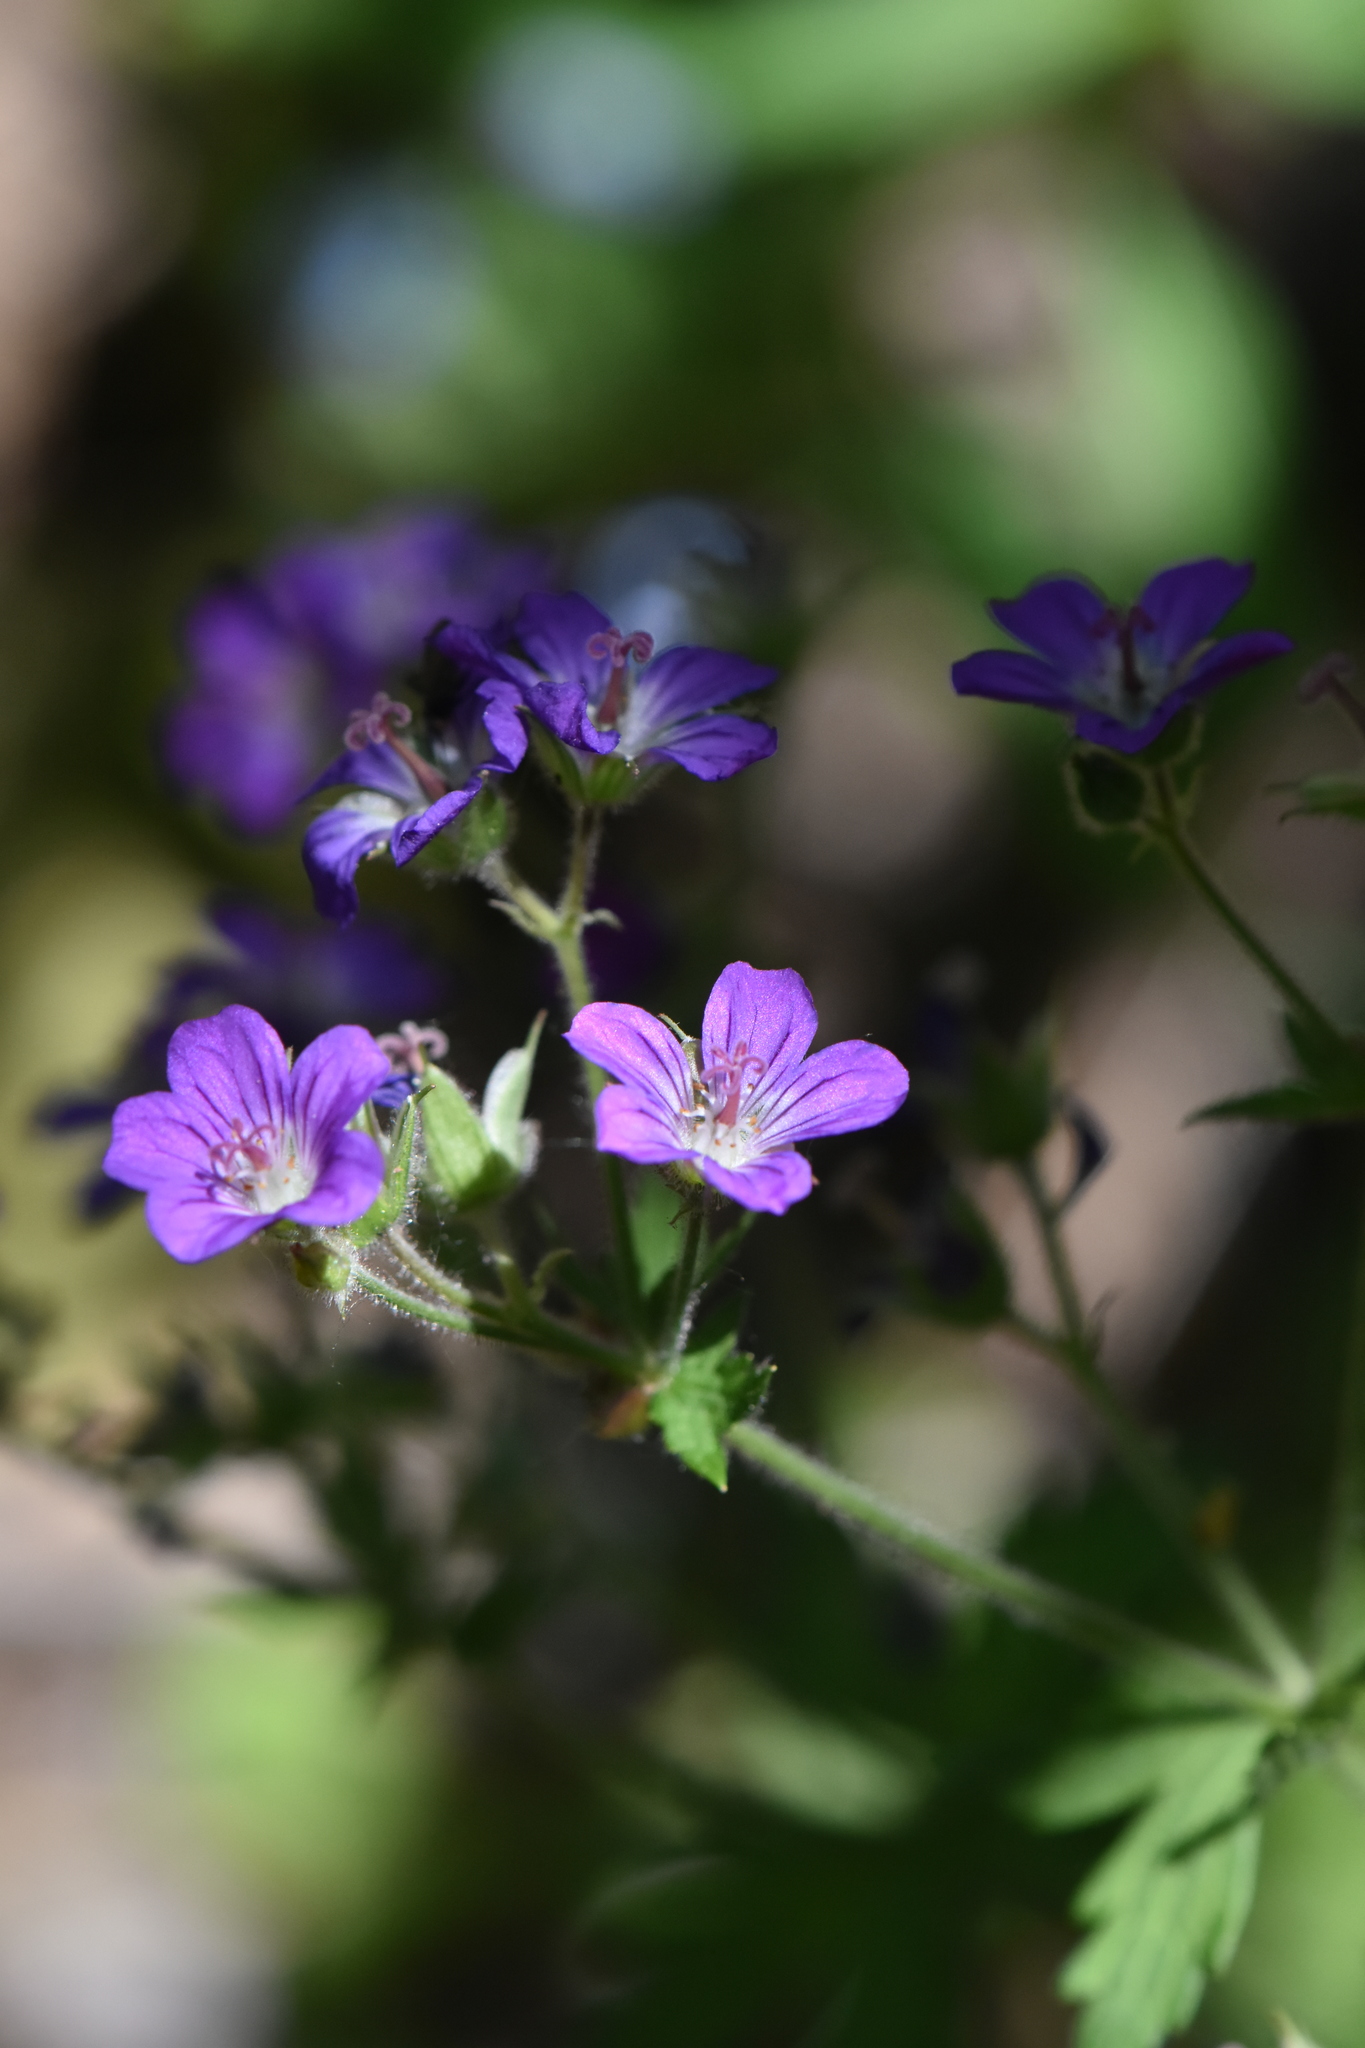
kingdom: Plantae
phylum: Tracheophyta
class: Magnoliopsida
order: Geraniales
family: Geraniaceae
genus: Geranium
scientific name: Geranium sylvaticum
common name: Wood crane's-bill
